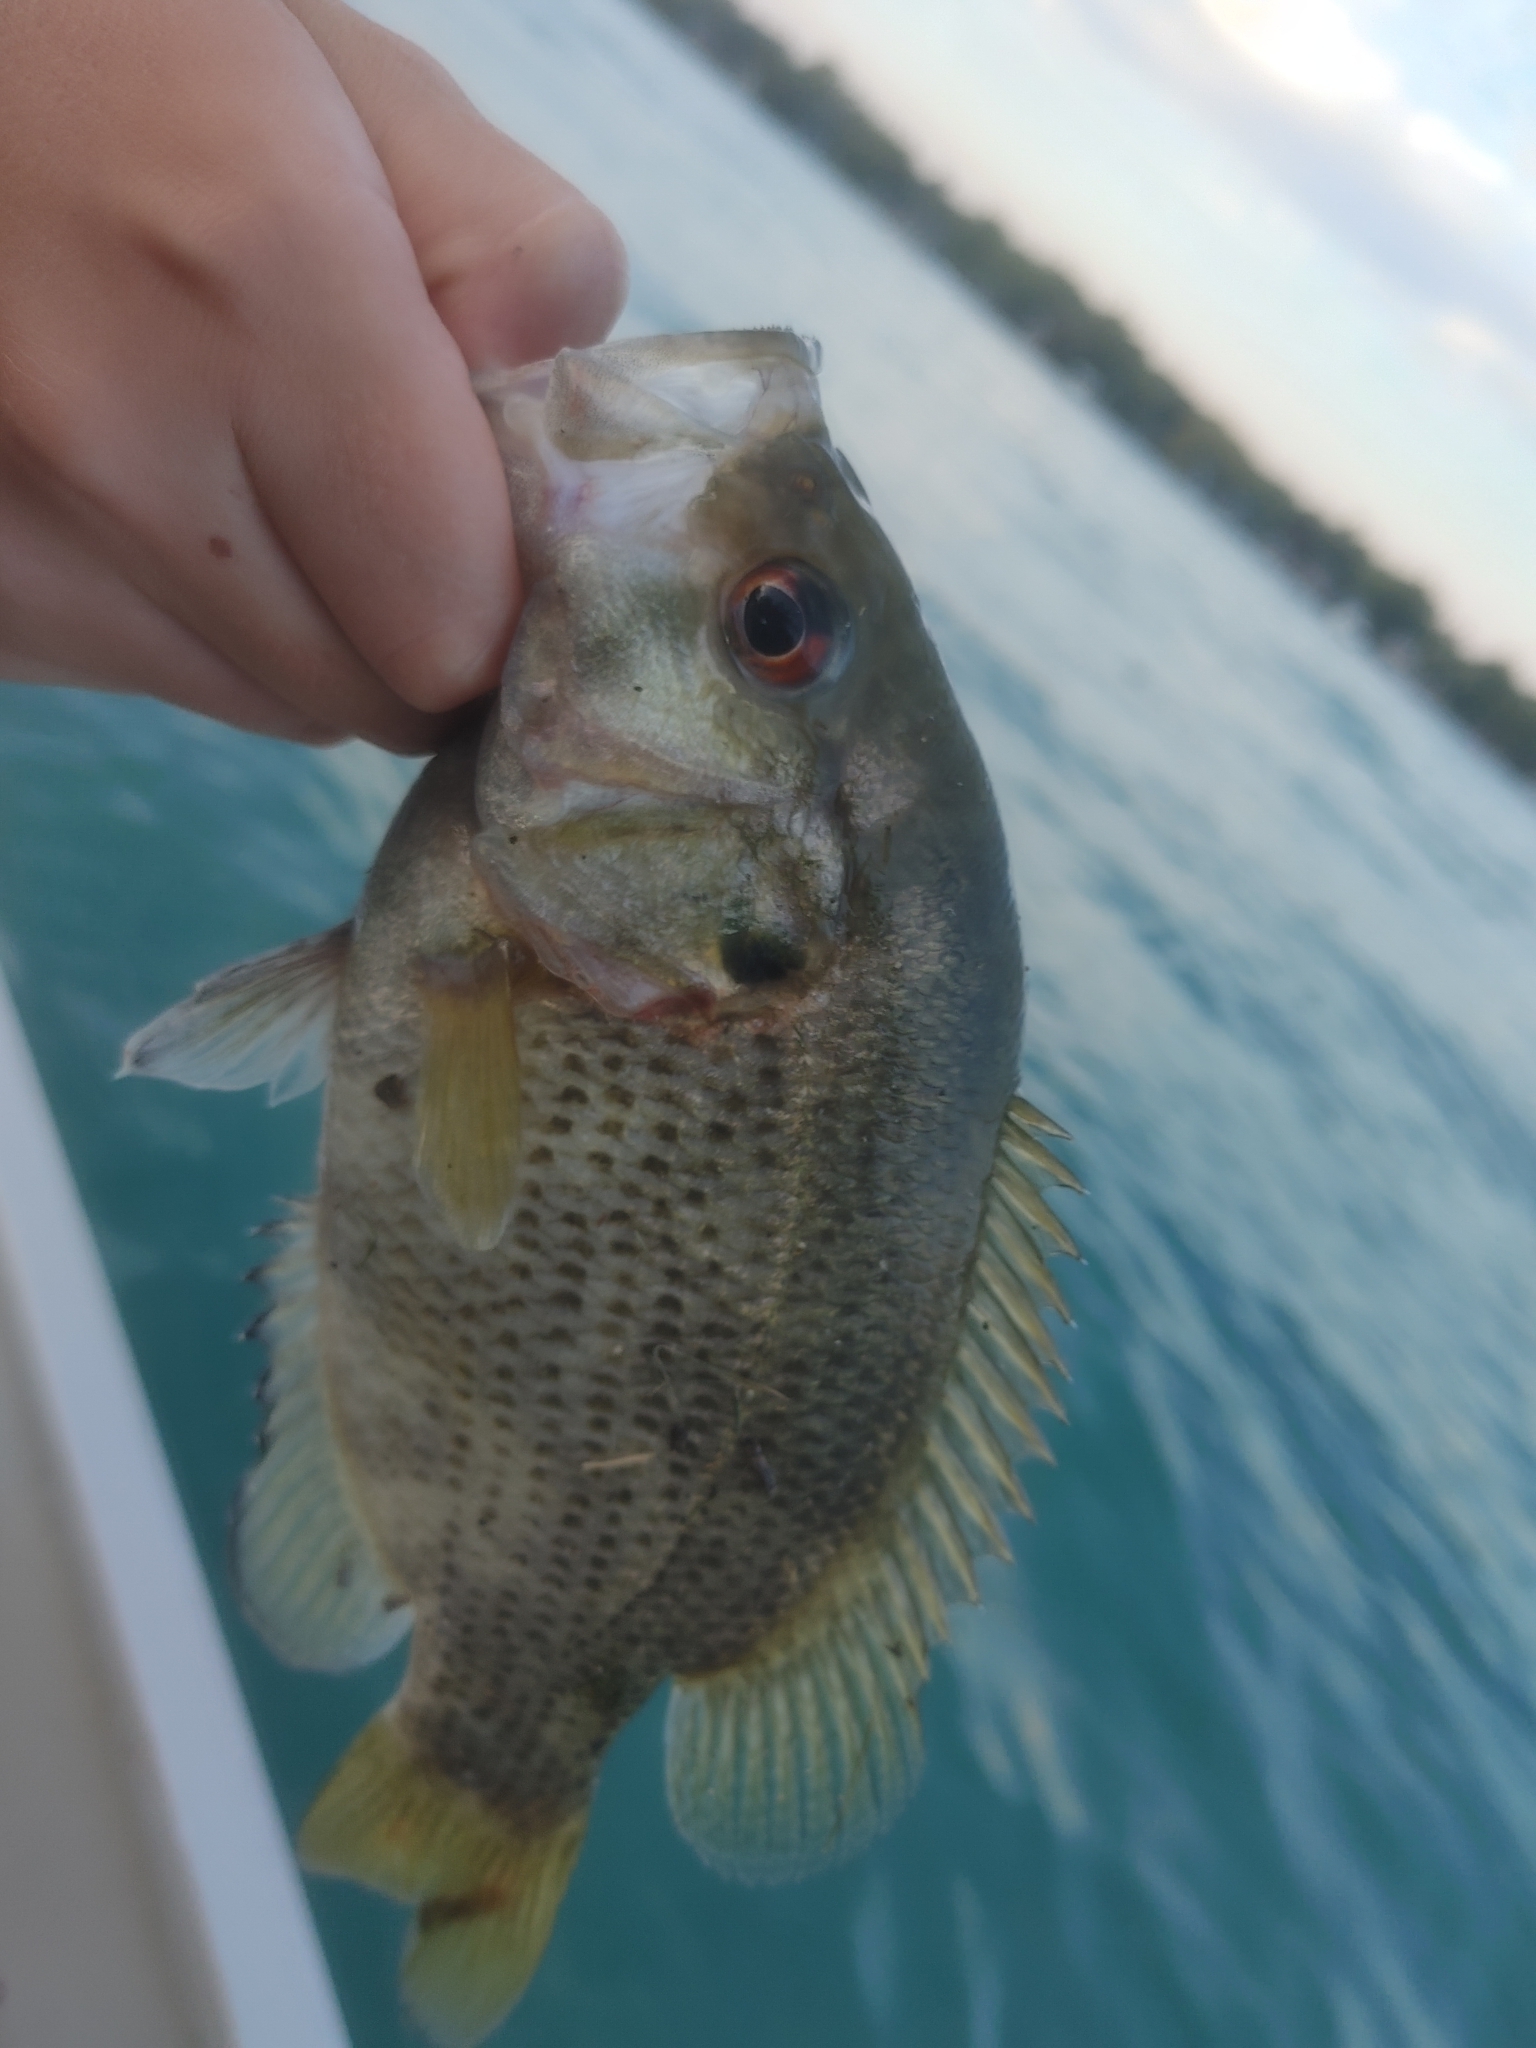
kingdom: Animalia
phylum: Chordata
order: Perciformes
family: Centrarchidae
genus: Ambloplites
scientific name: Ambloplites rupestris
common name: Rock bass
